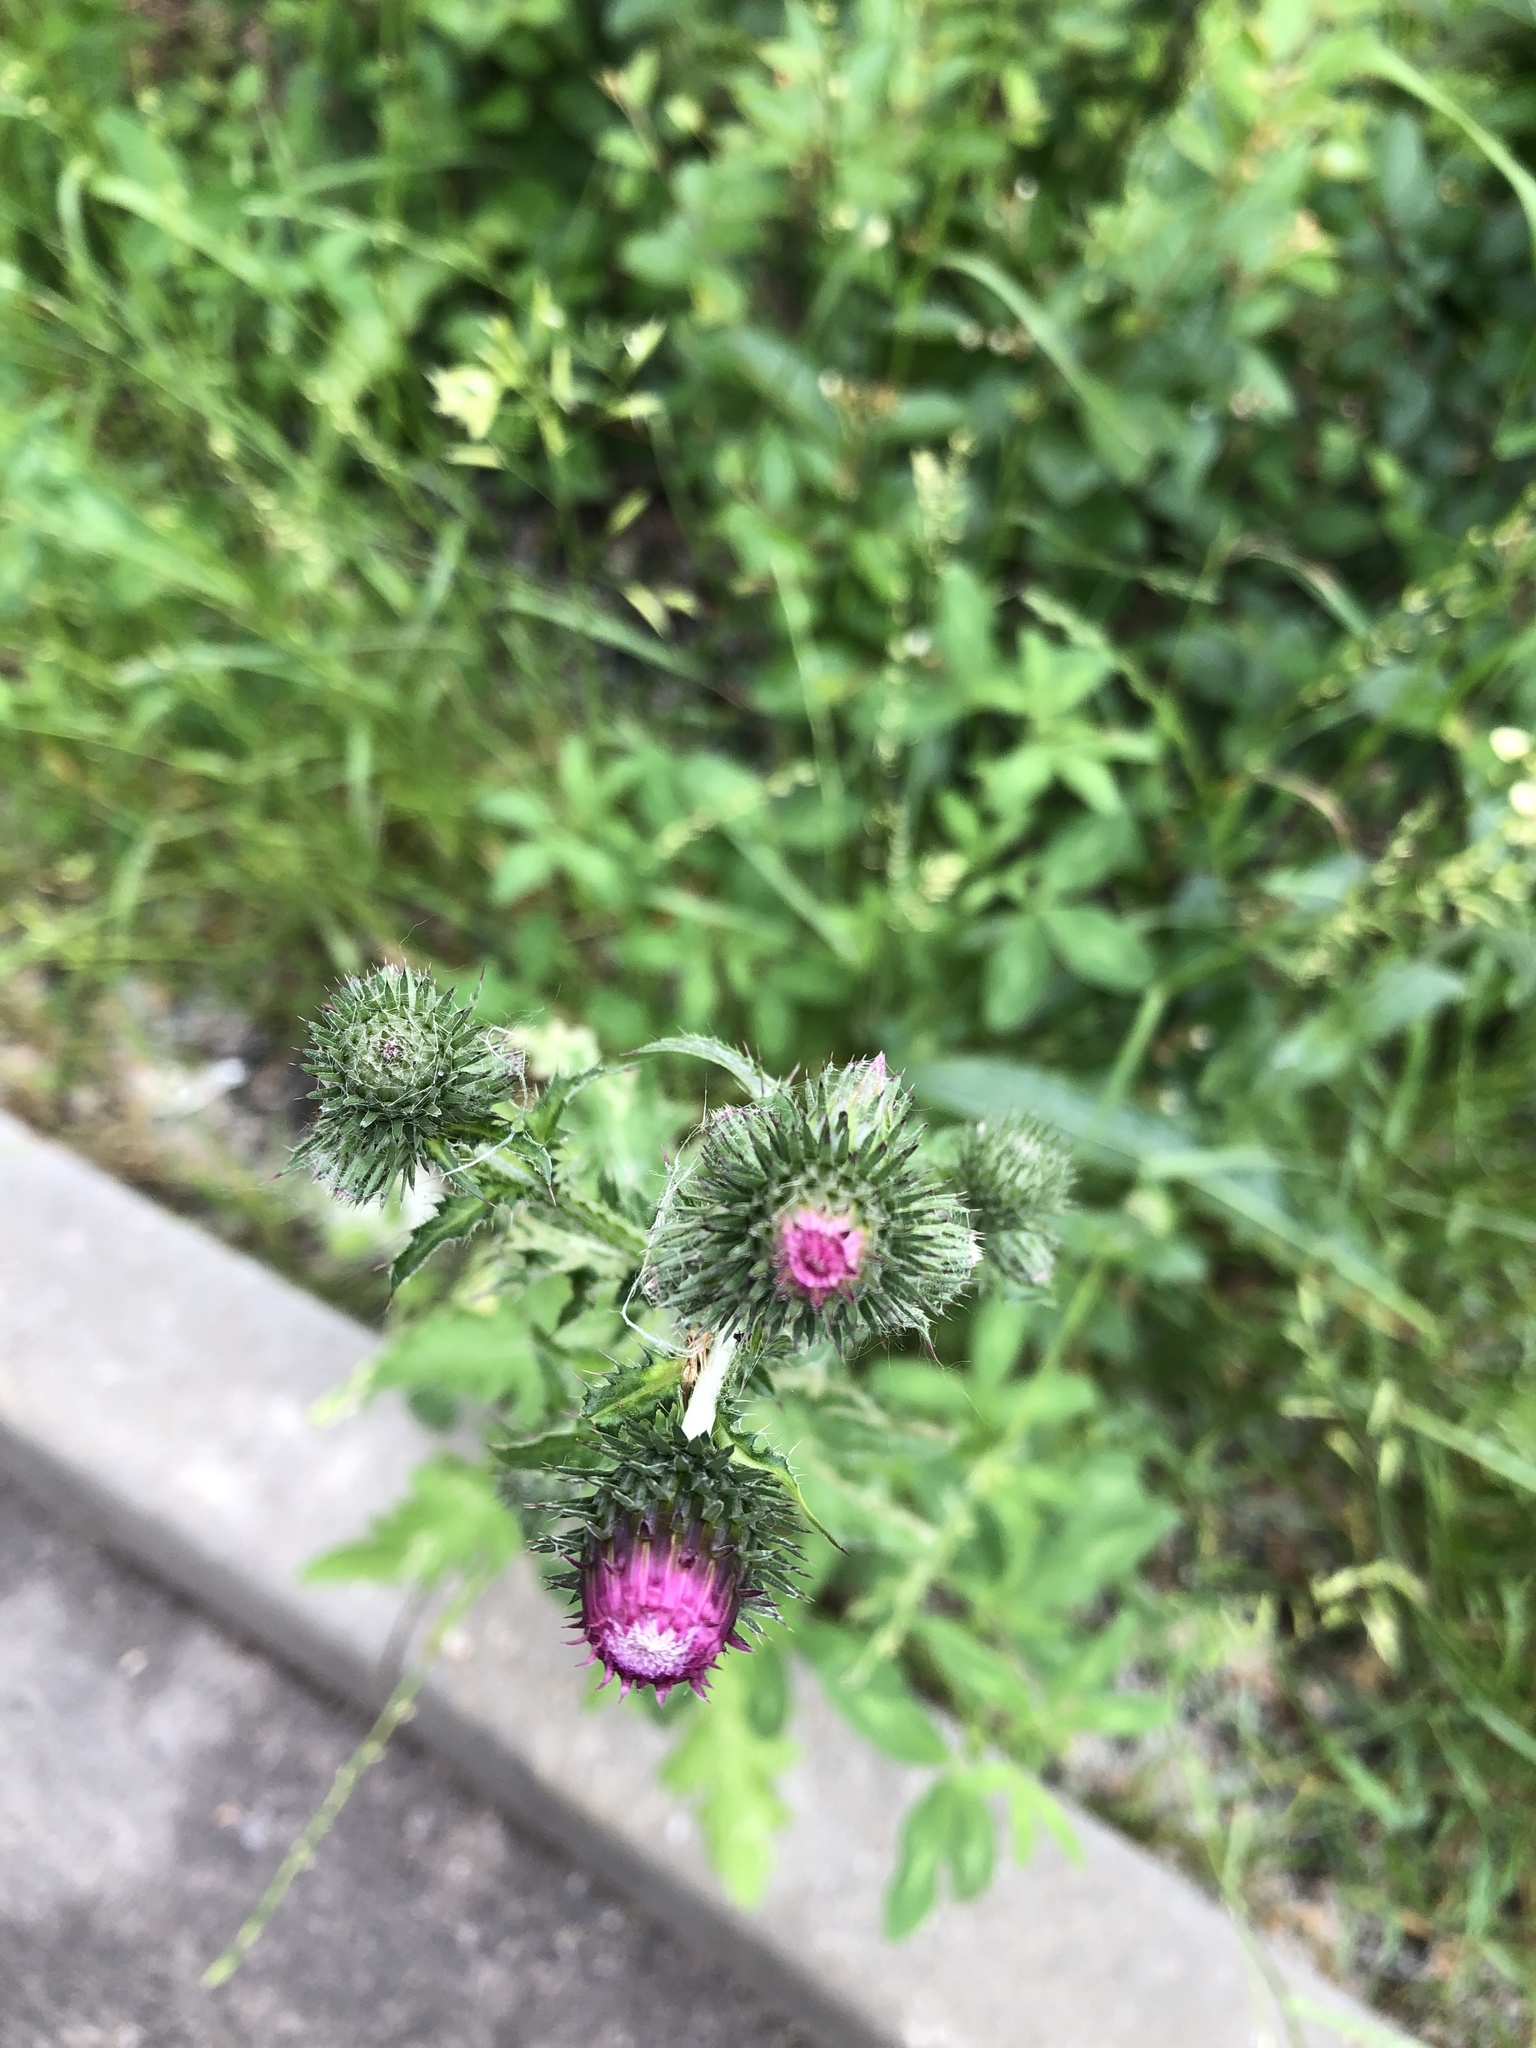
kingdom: Plantae
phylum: Tracheophyta
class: Magnoliopsida
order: Asterales
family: Asteraceae
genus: Carduus
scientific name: Carduus crispus
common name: Welted thistle
